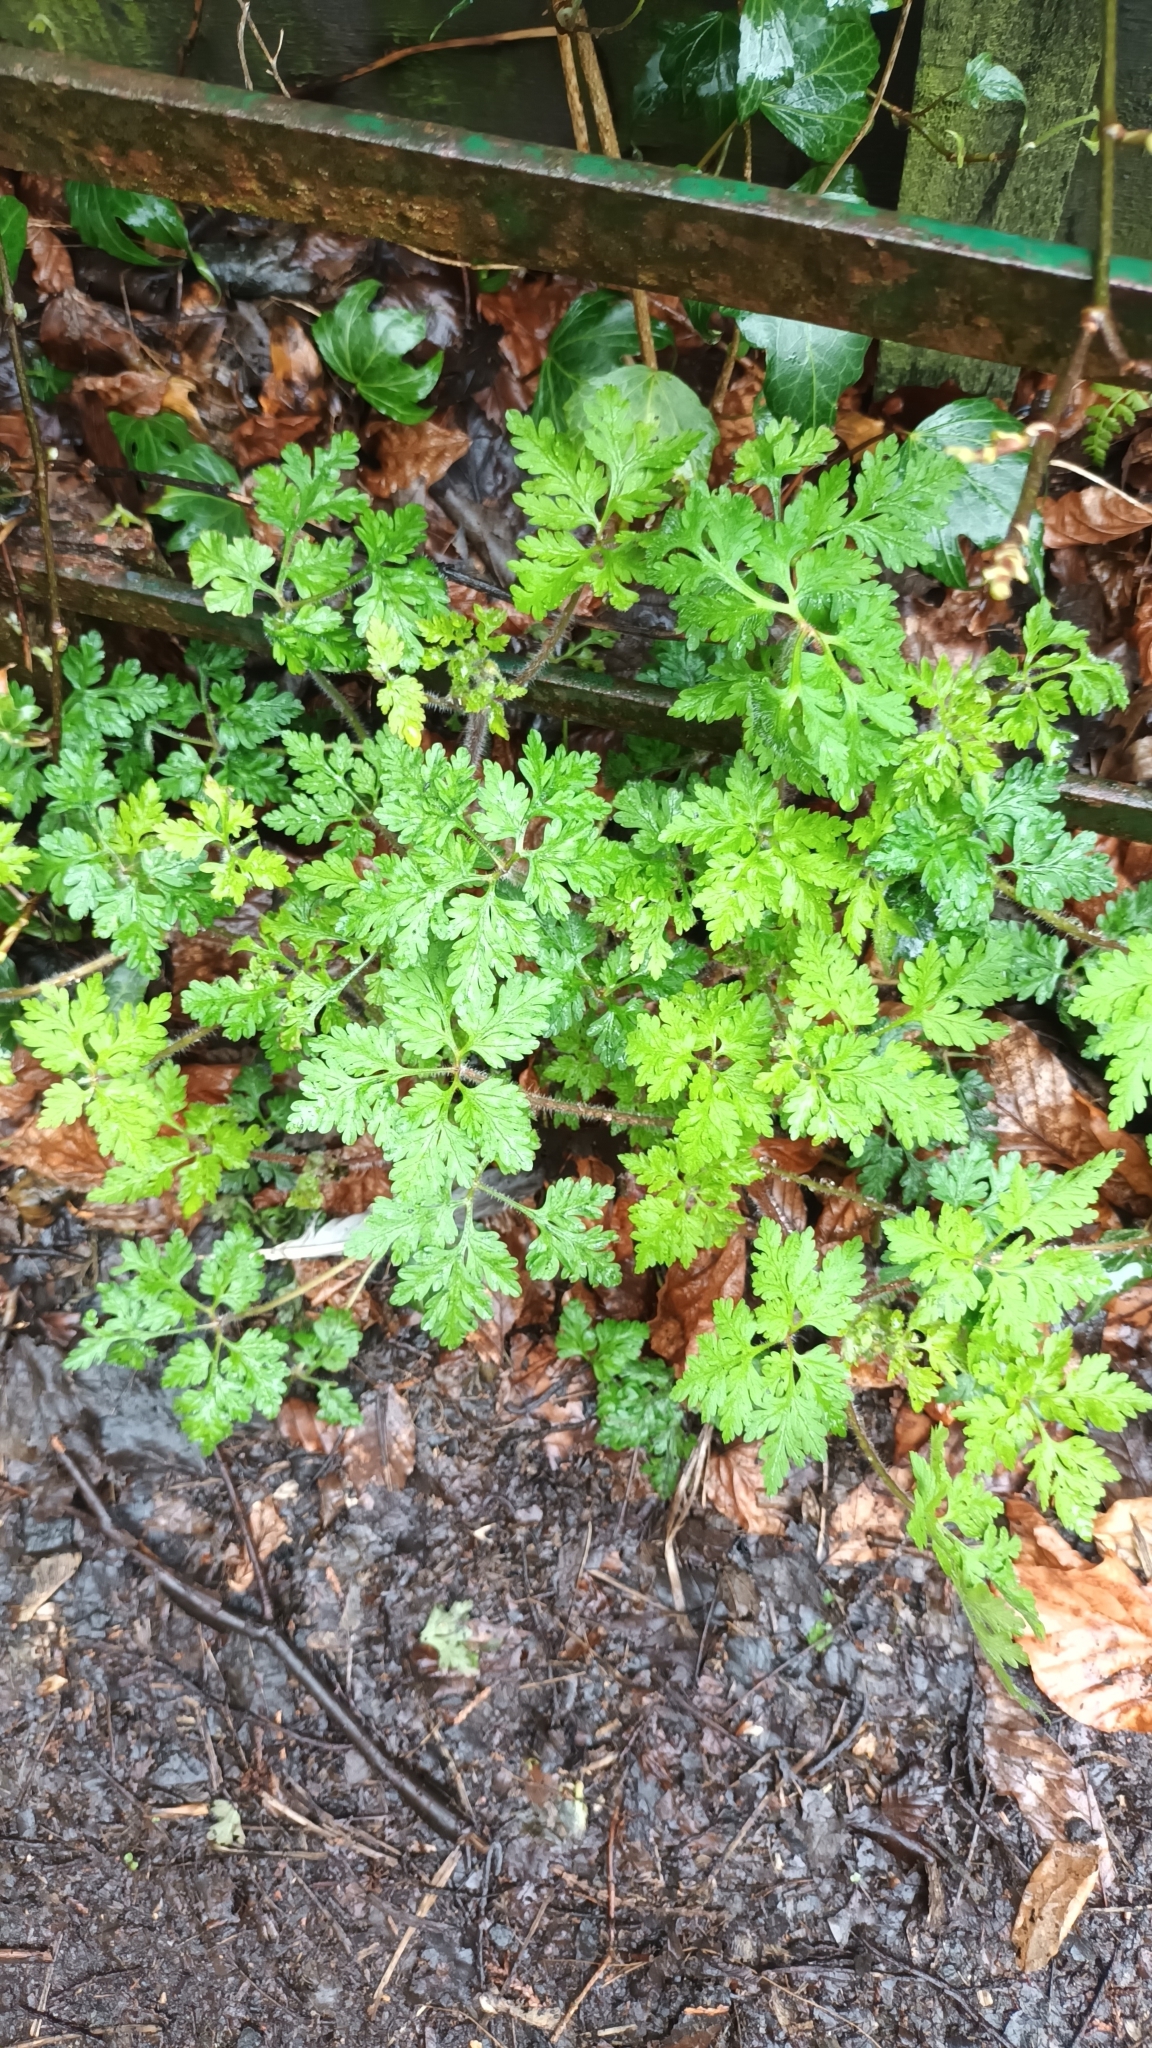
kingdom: Plantae
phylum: Tracheophyta
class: Magnoliopsida
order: Geraniales
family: Geraniaceae
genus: Geranium
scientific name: Geranium robertianum
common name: Herb-robert
